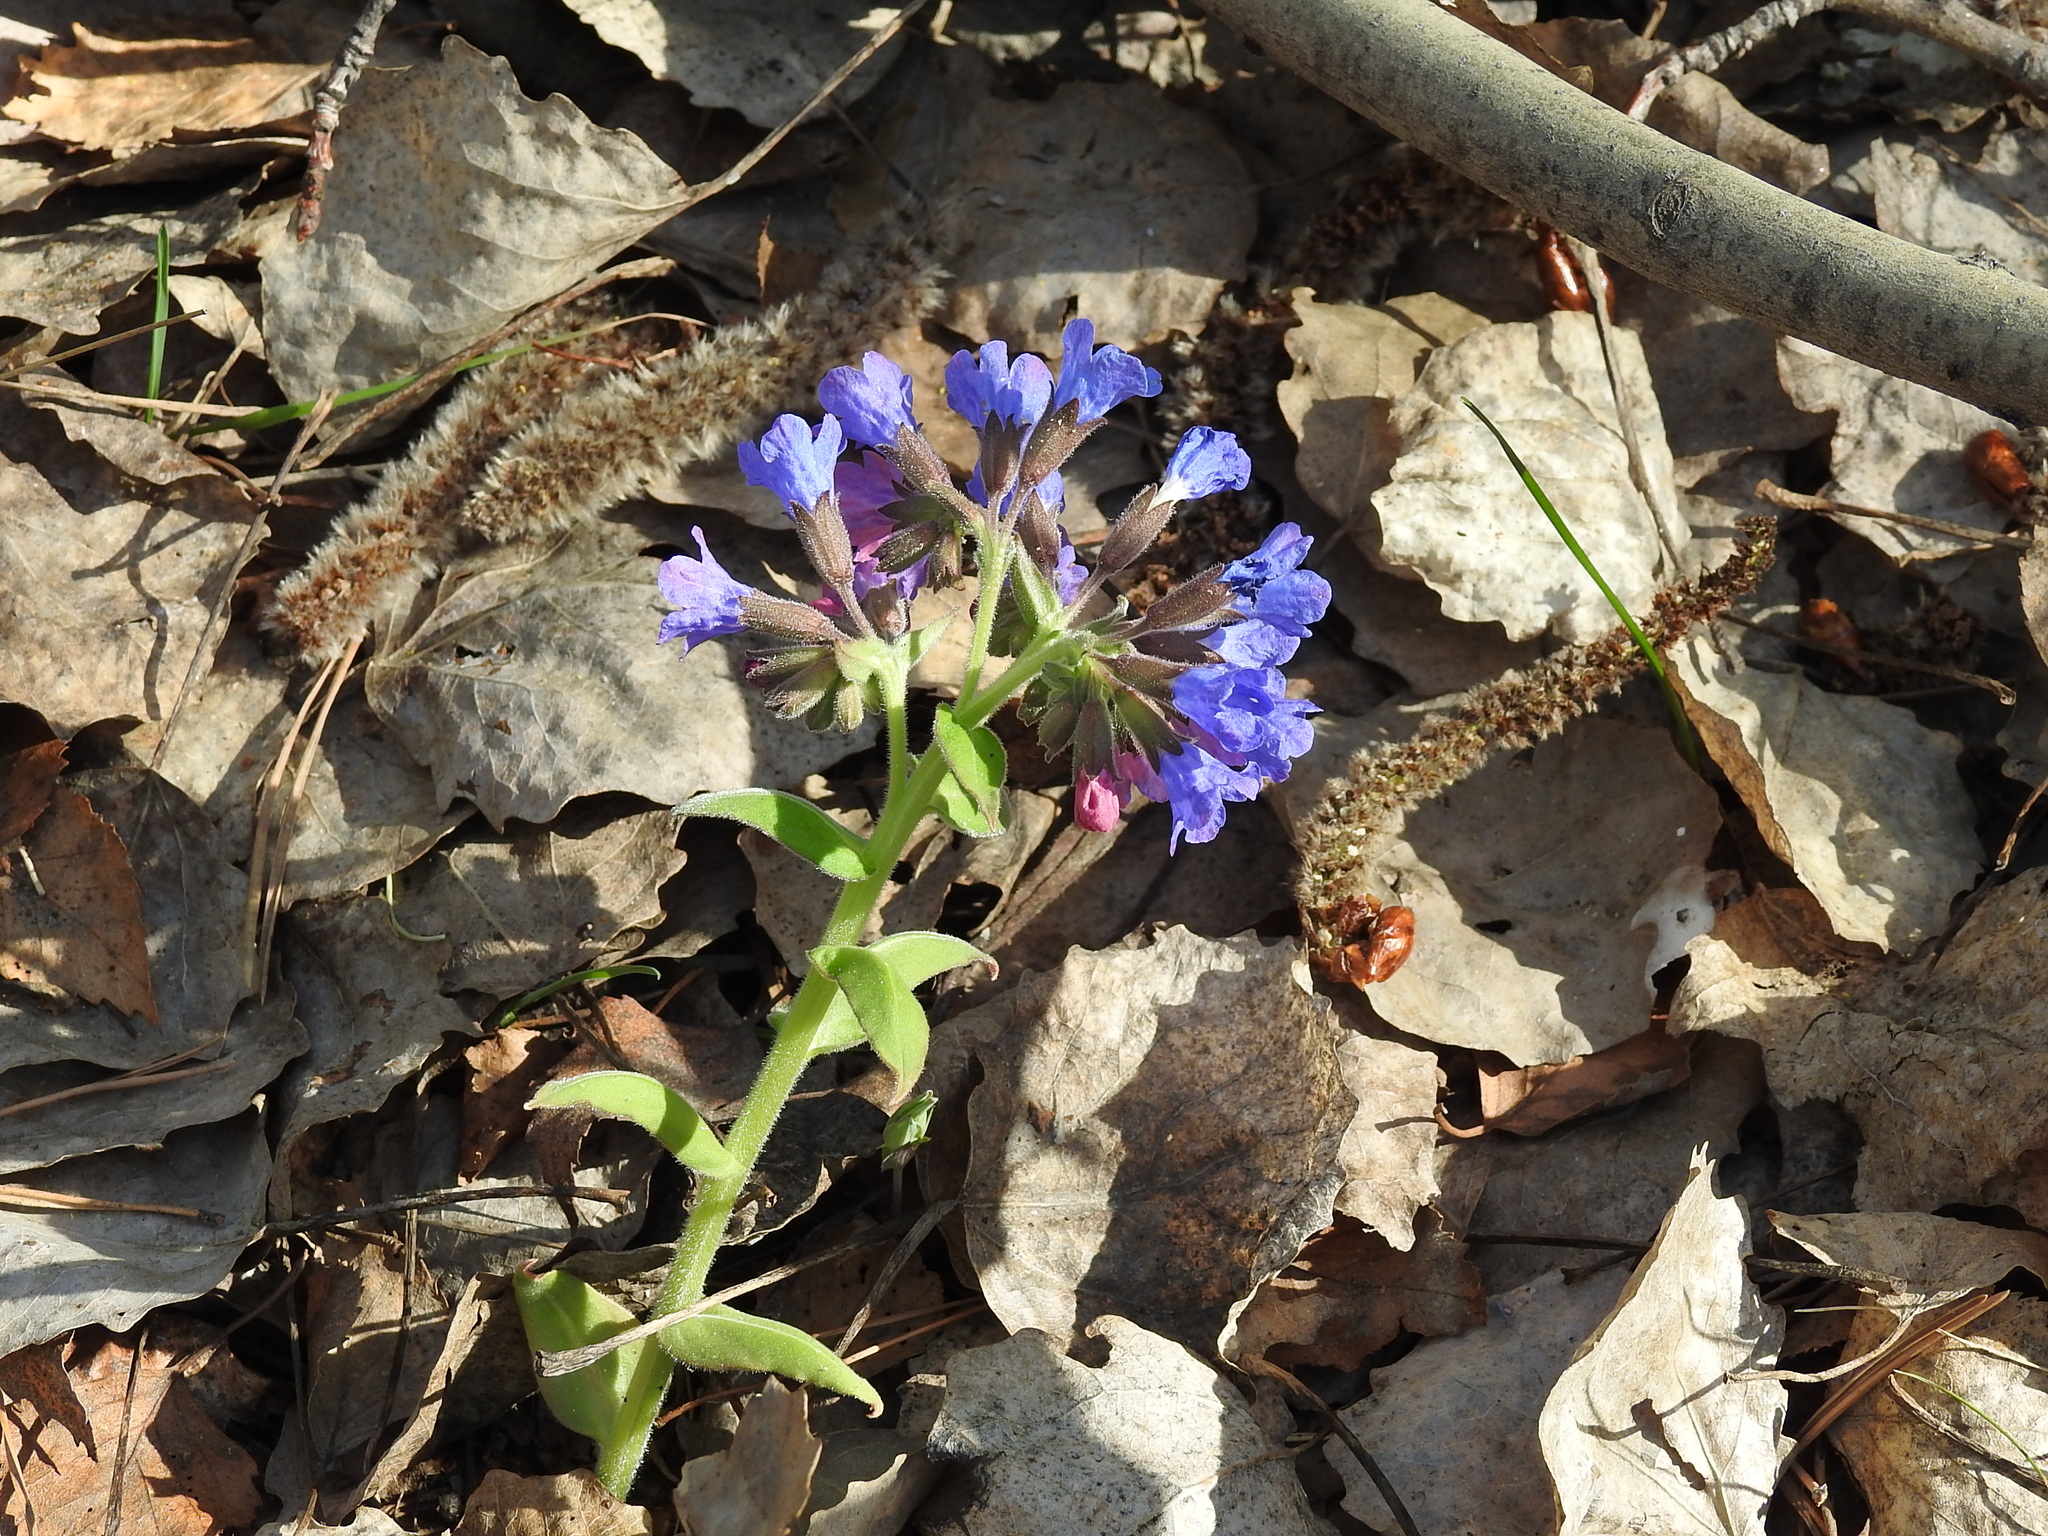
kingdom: Plantae
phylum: Tracheophyta
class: Magnoliopsida
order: Boraginales
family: Boraginaceae
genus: Pulmonaria
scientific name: Pulmonaria mollis
